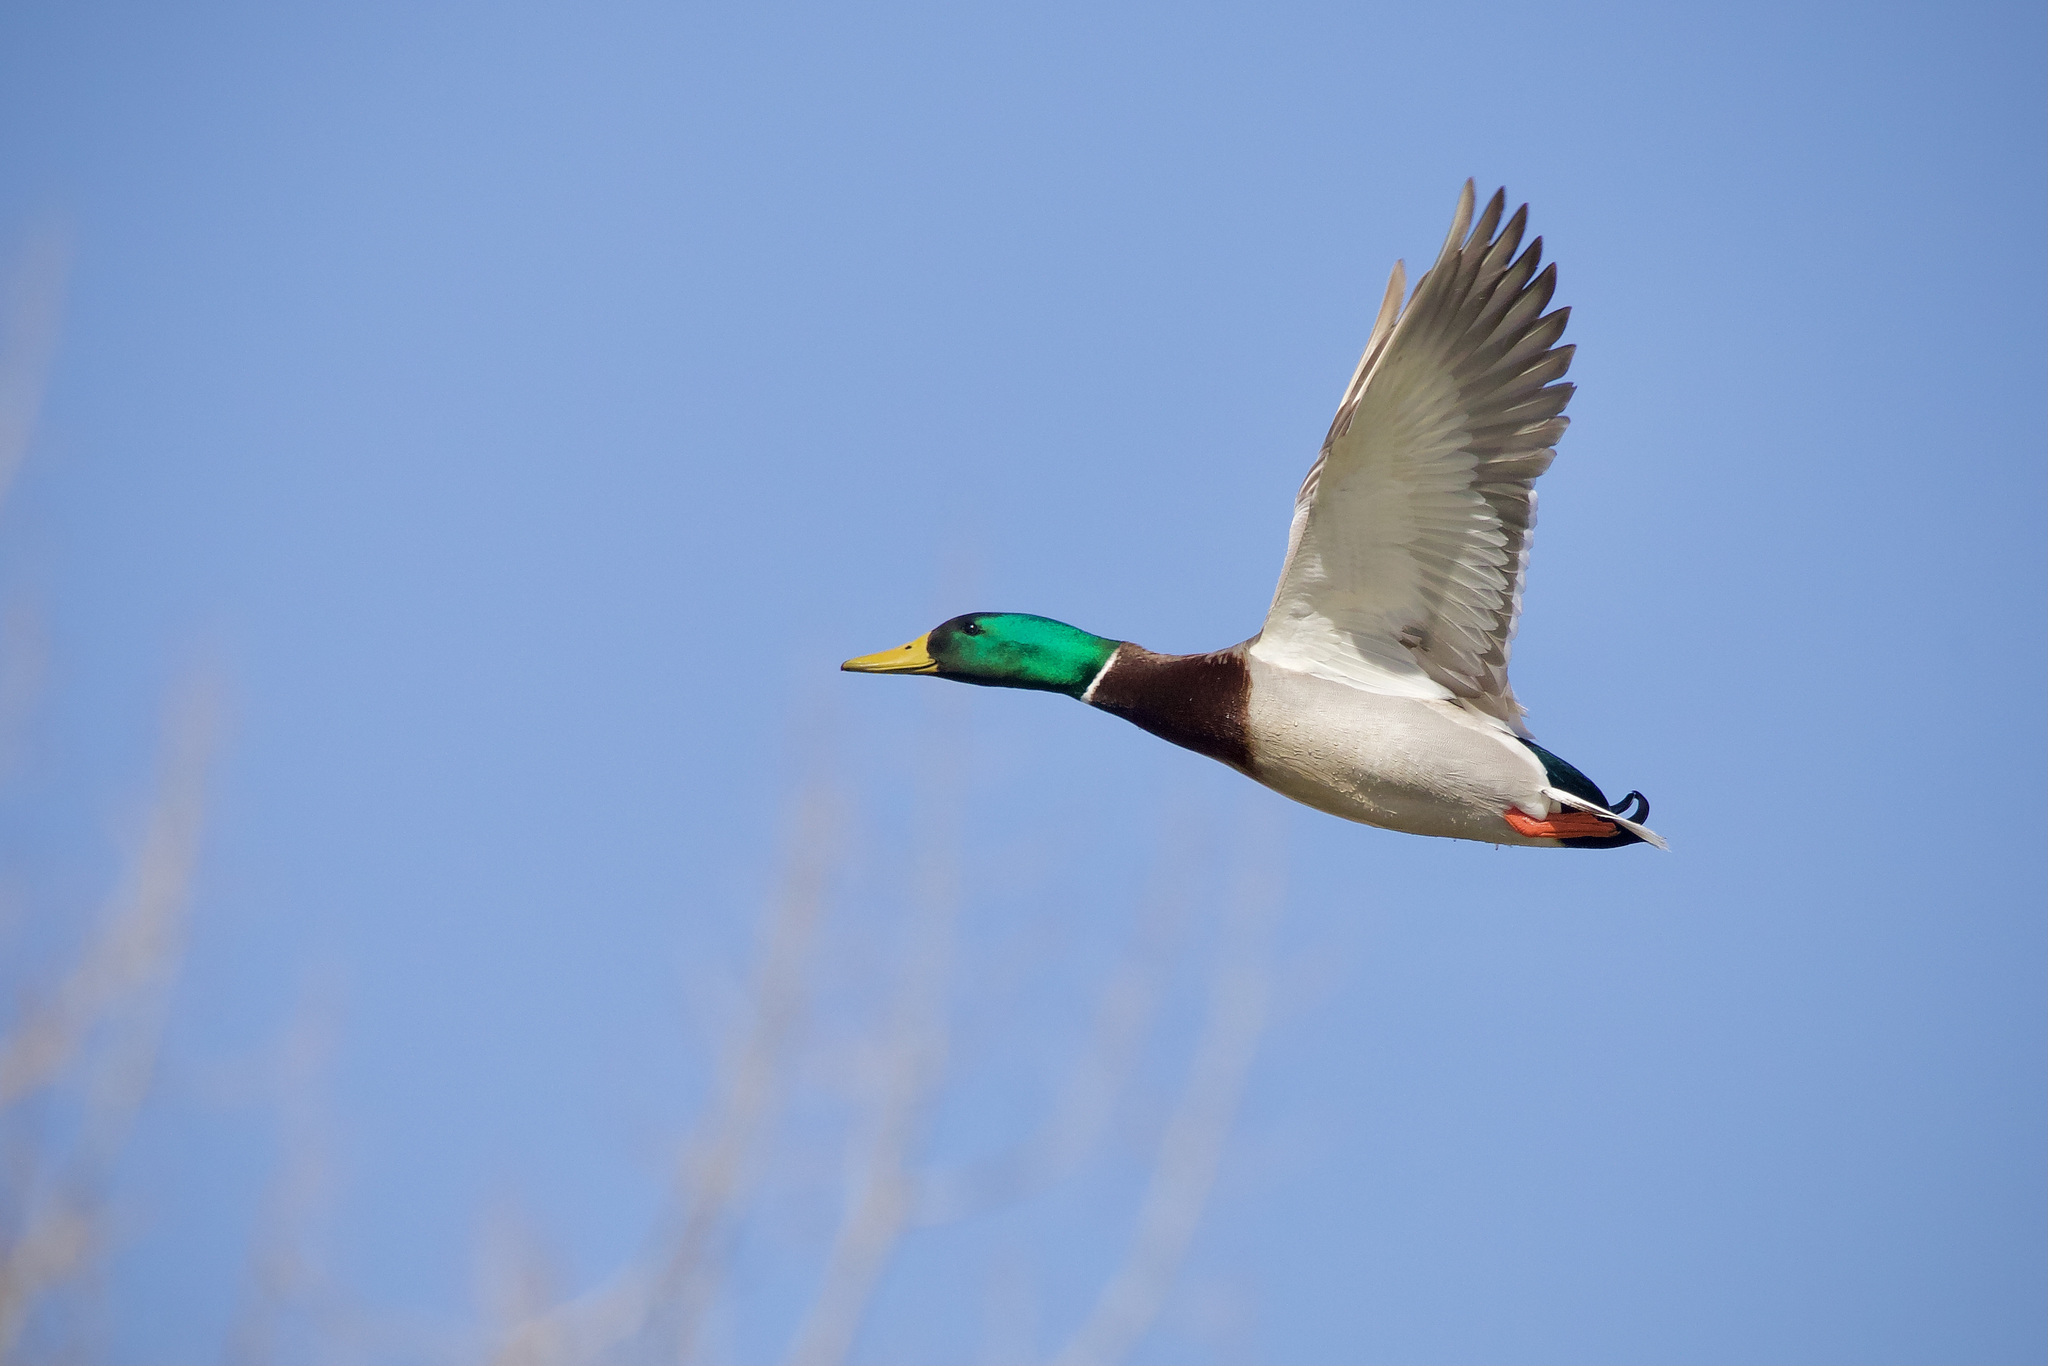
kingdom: Animalia
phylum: Chordata
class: Aves
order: Anseriformes
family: Anatidae
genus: Anas
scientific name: Anas platyrhynchos
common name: Mallard
